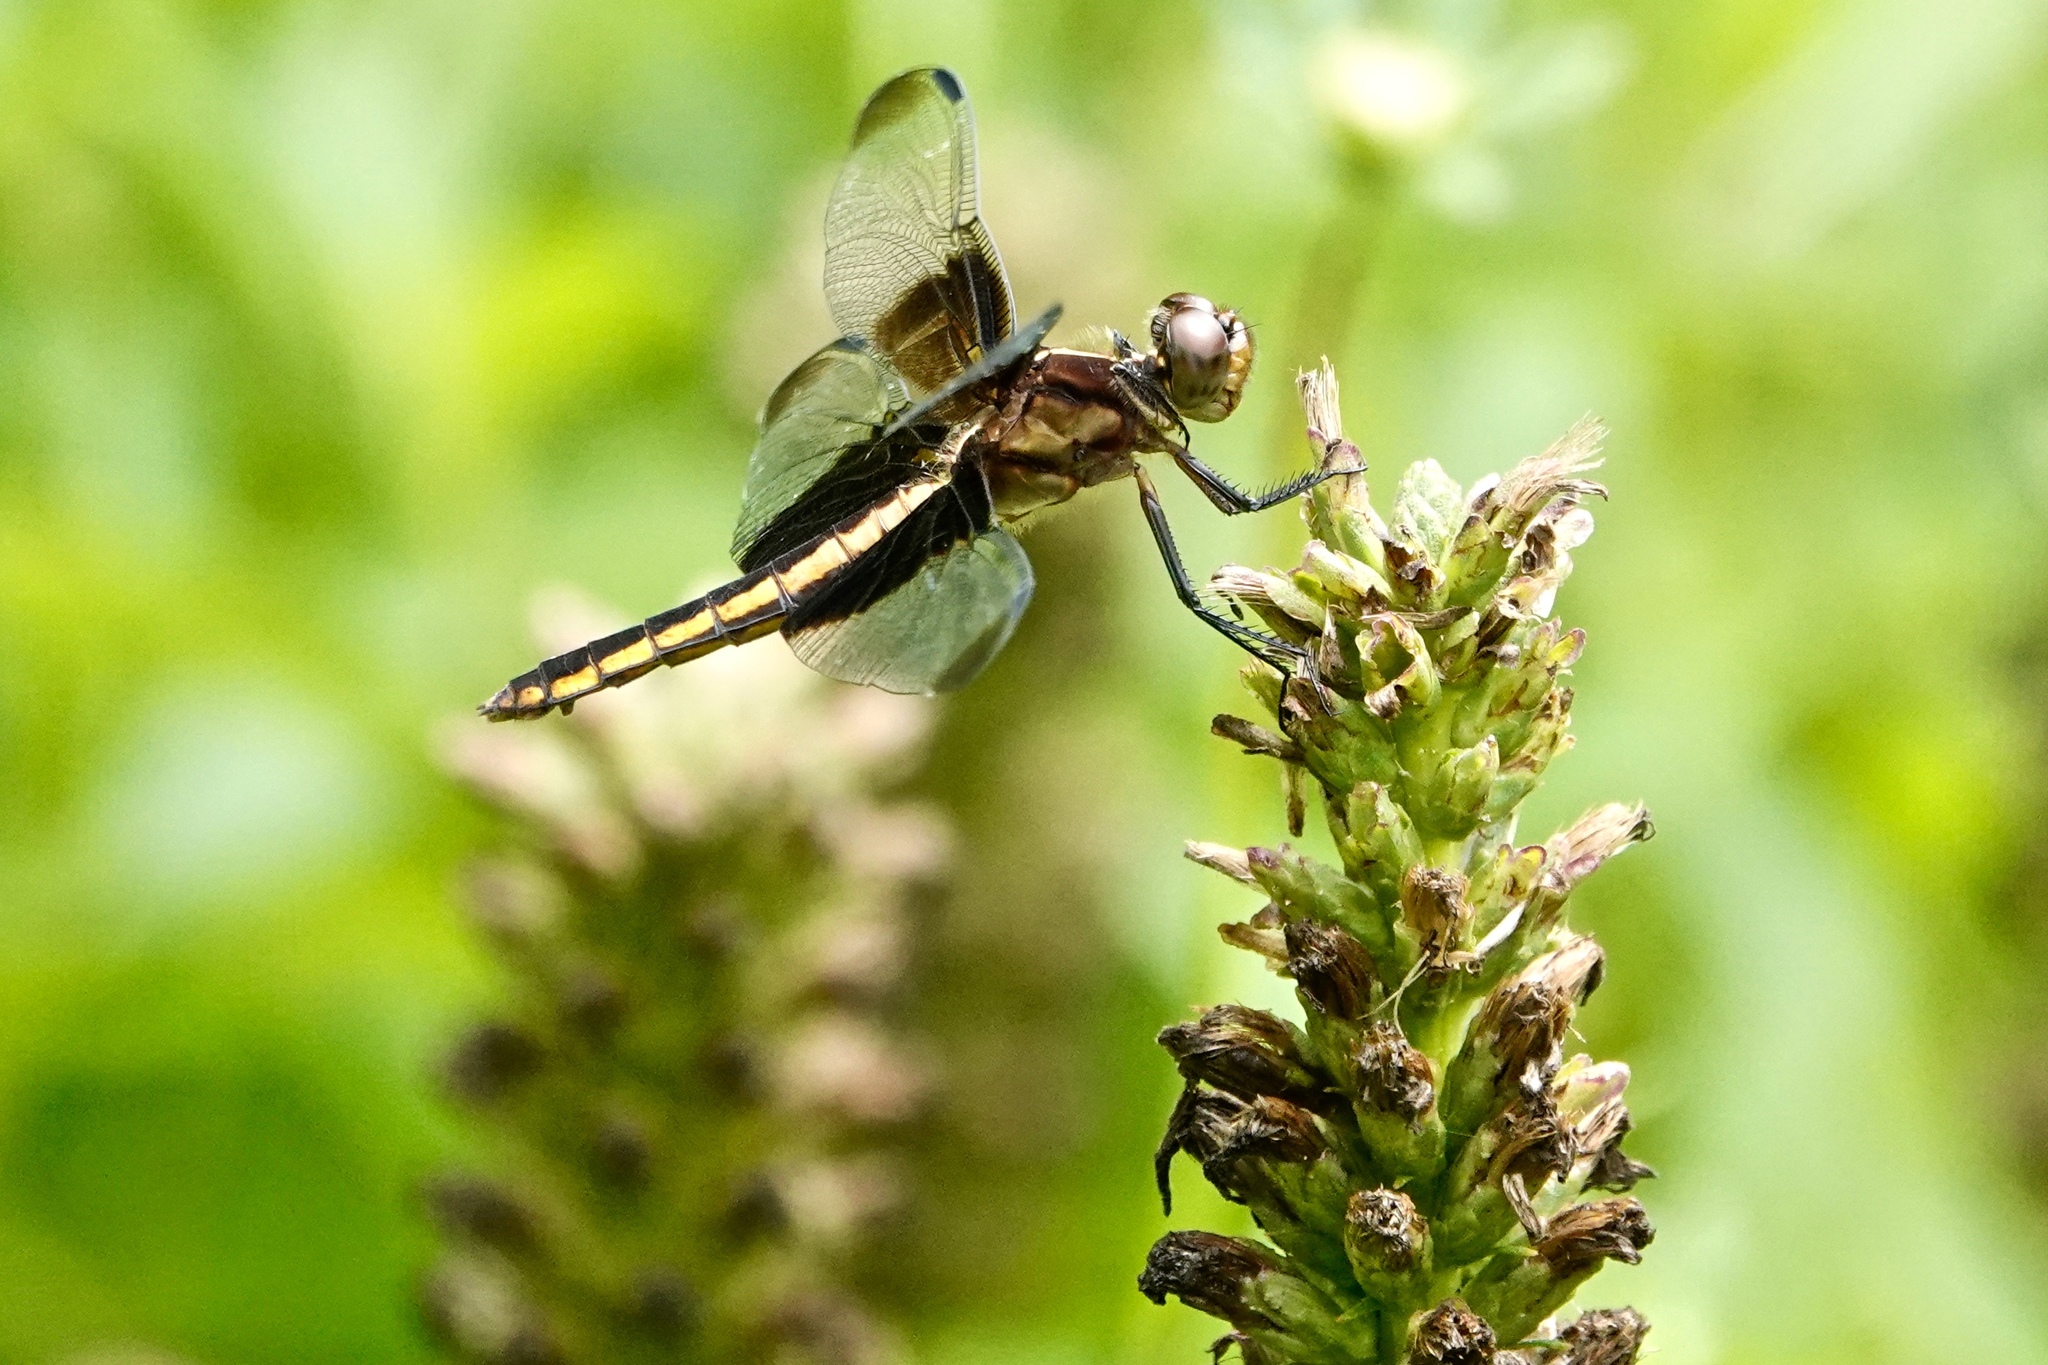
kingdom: Animalia
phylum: Arthropoda
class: Insecta
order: Odonata
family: Libellulidae
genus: Libellula
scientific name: Libellula luctuosa
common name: Widow skimmer
